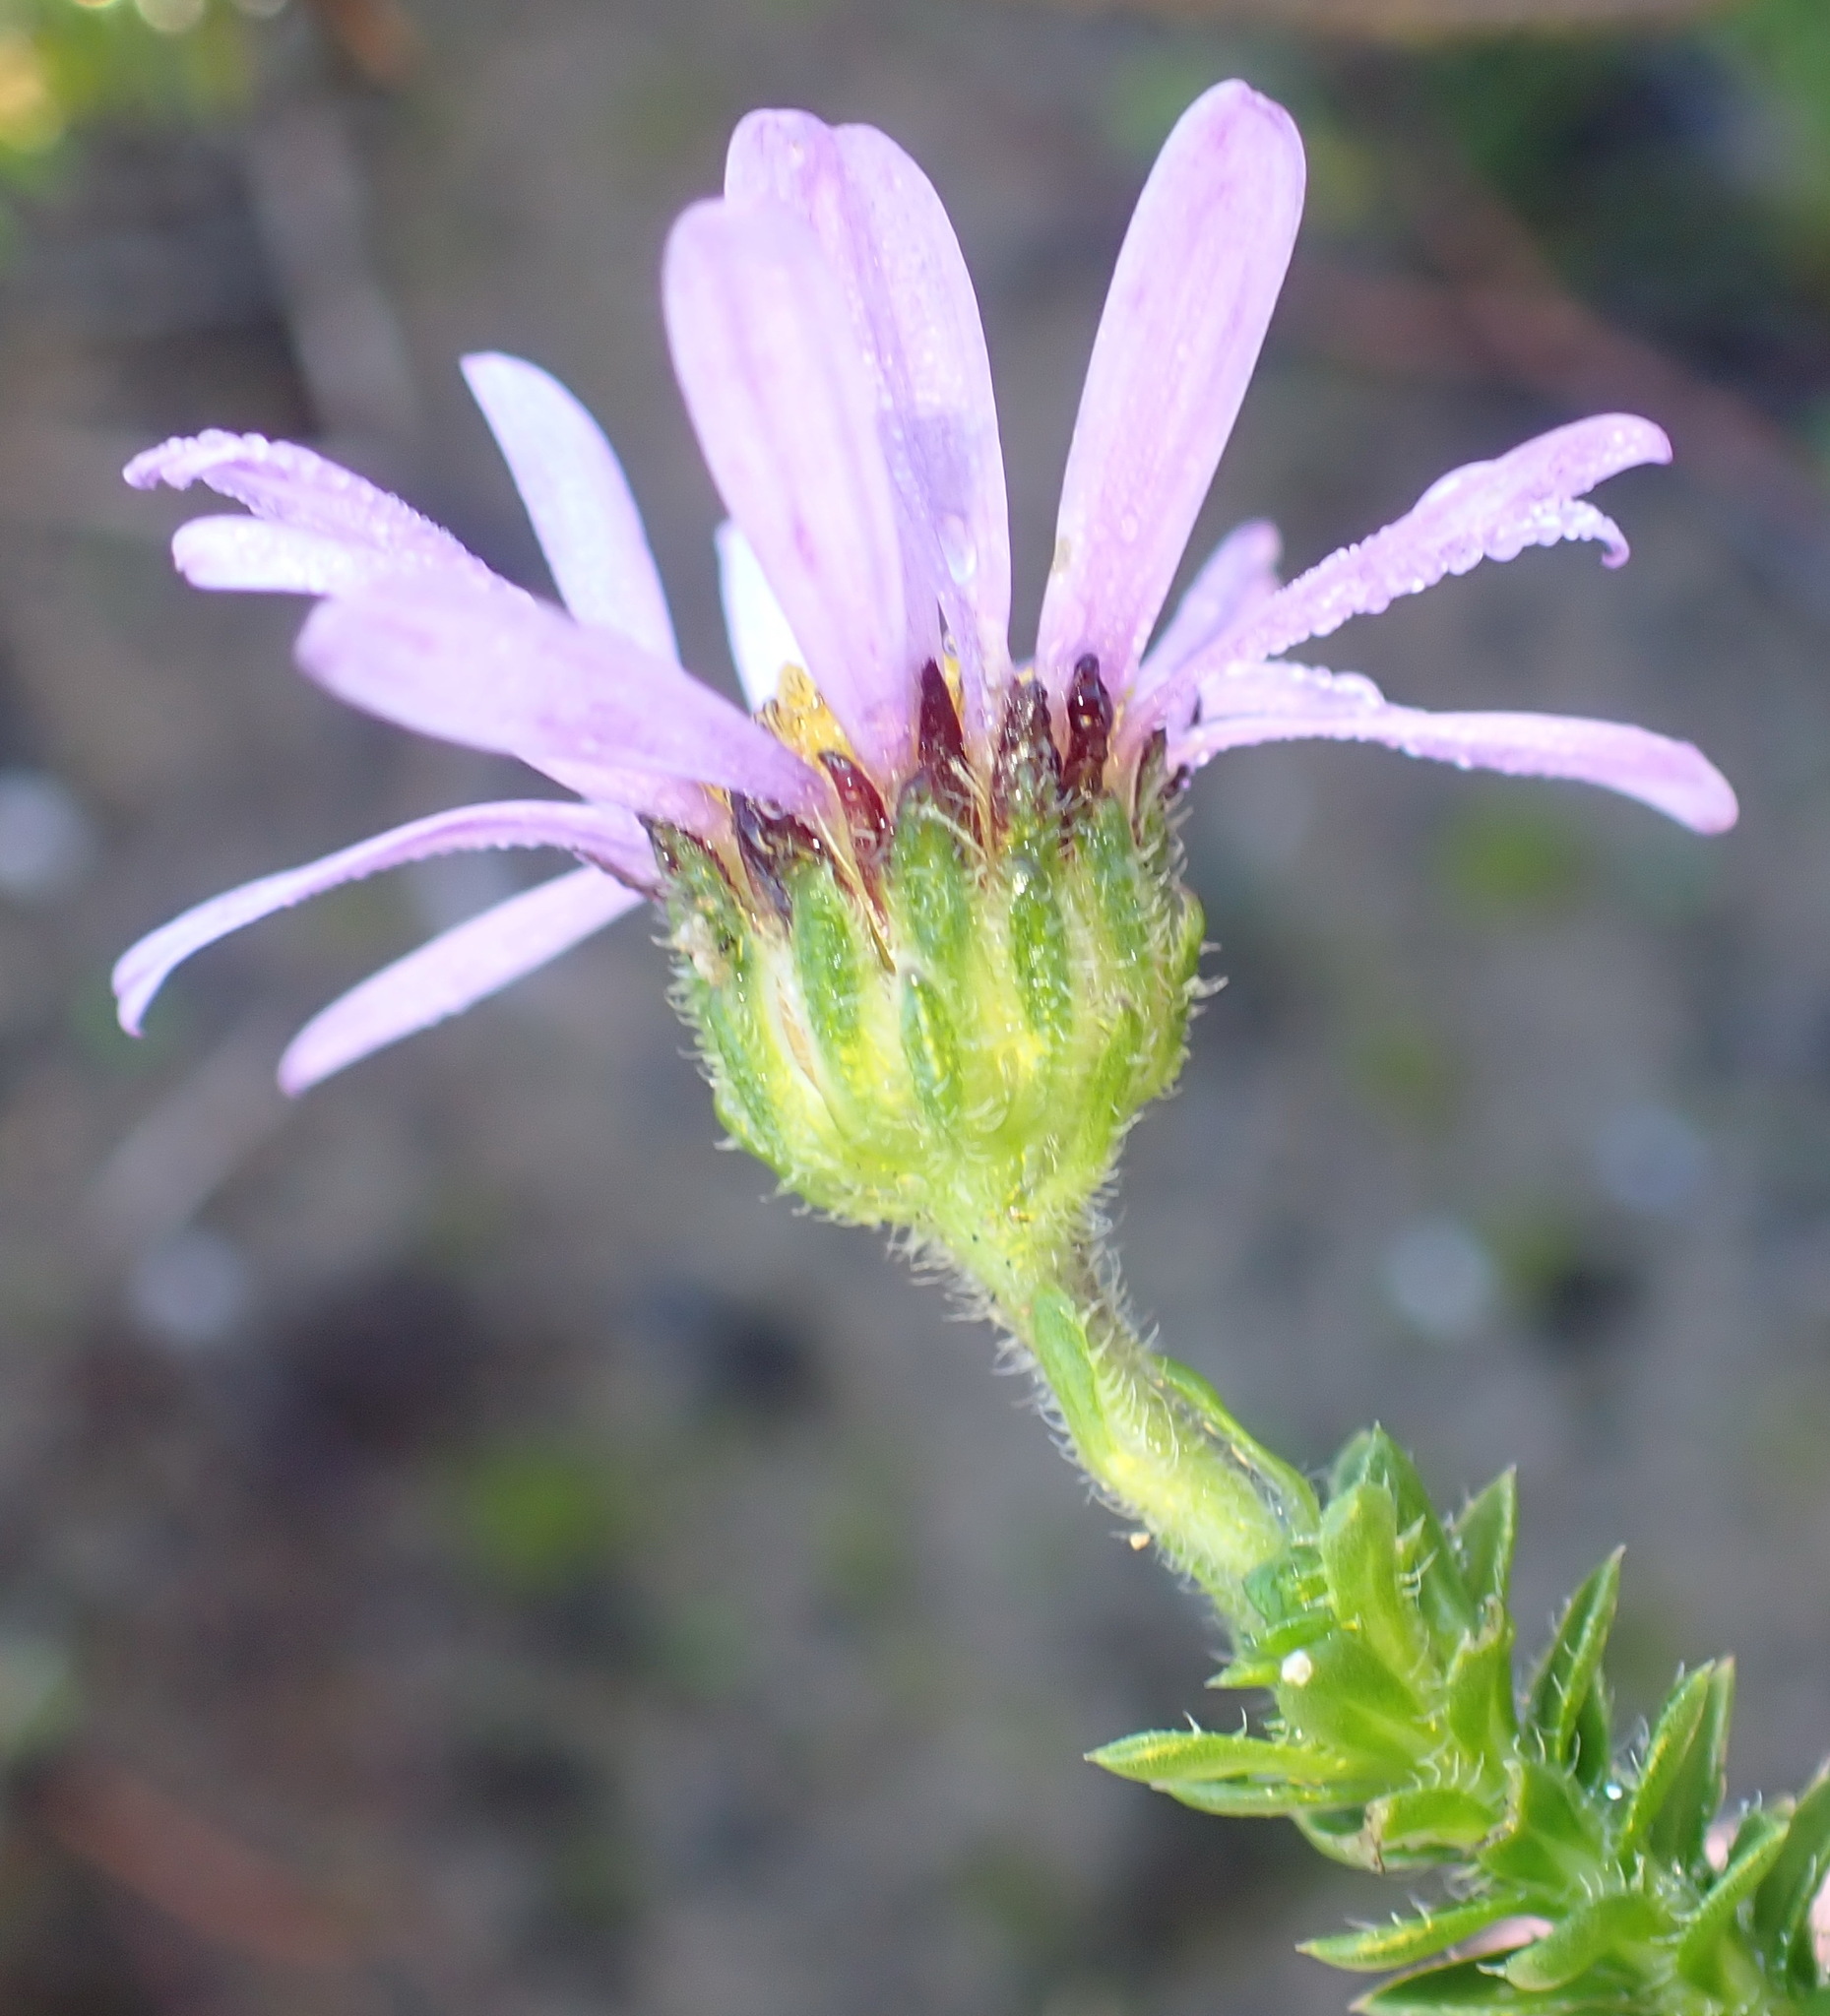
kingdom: Plantae
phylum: Tracheophyta
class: Magnoliopsida
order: Asterales
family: Asteraceae
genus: Felicia
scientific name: Felicia echinata
